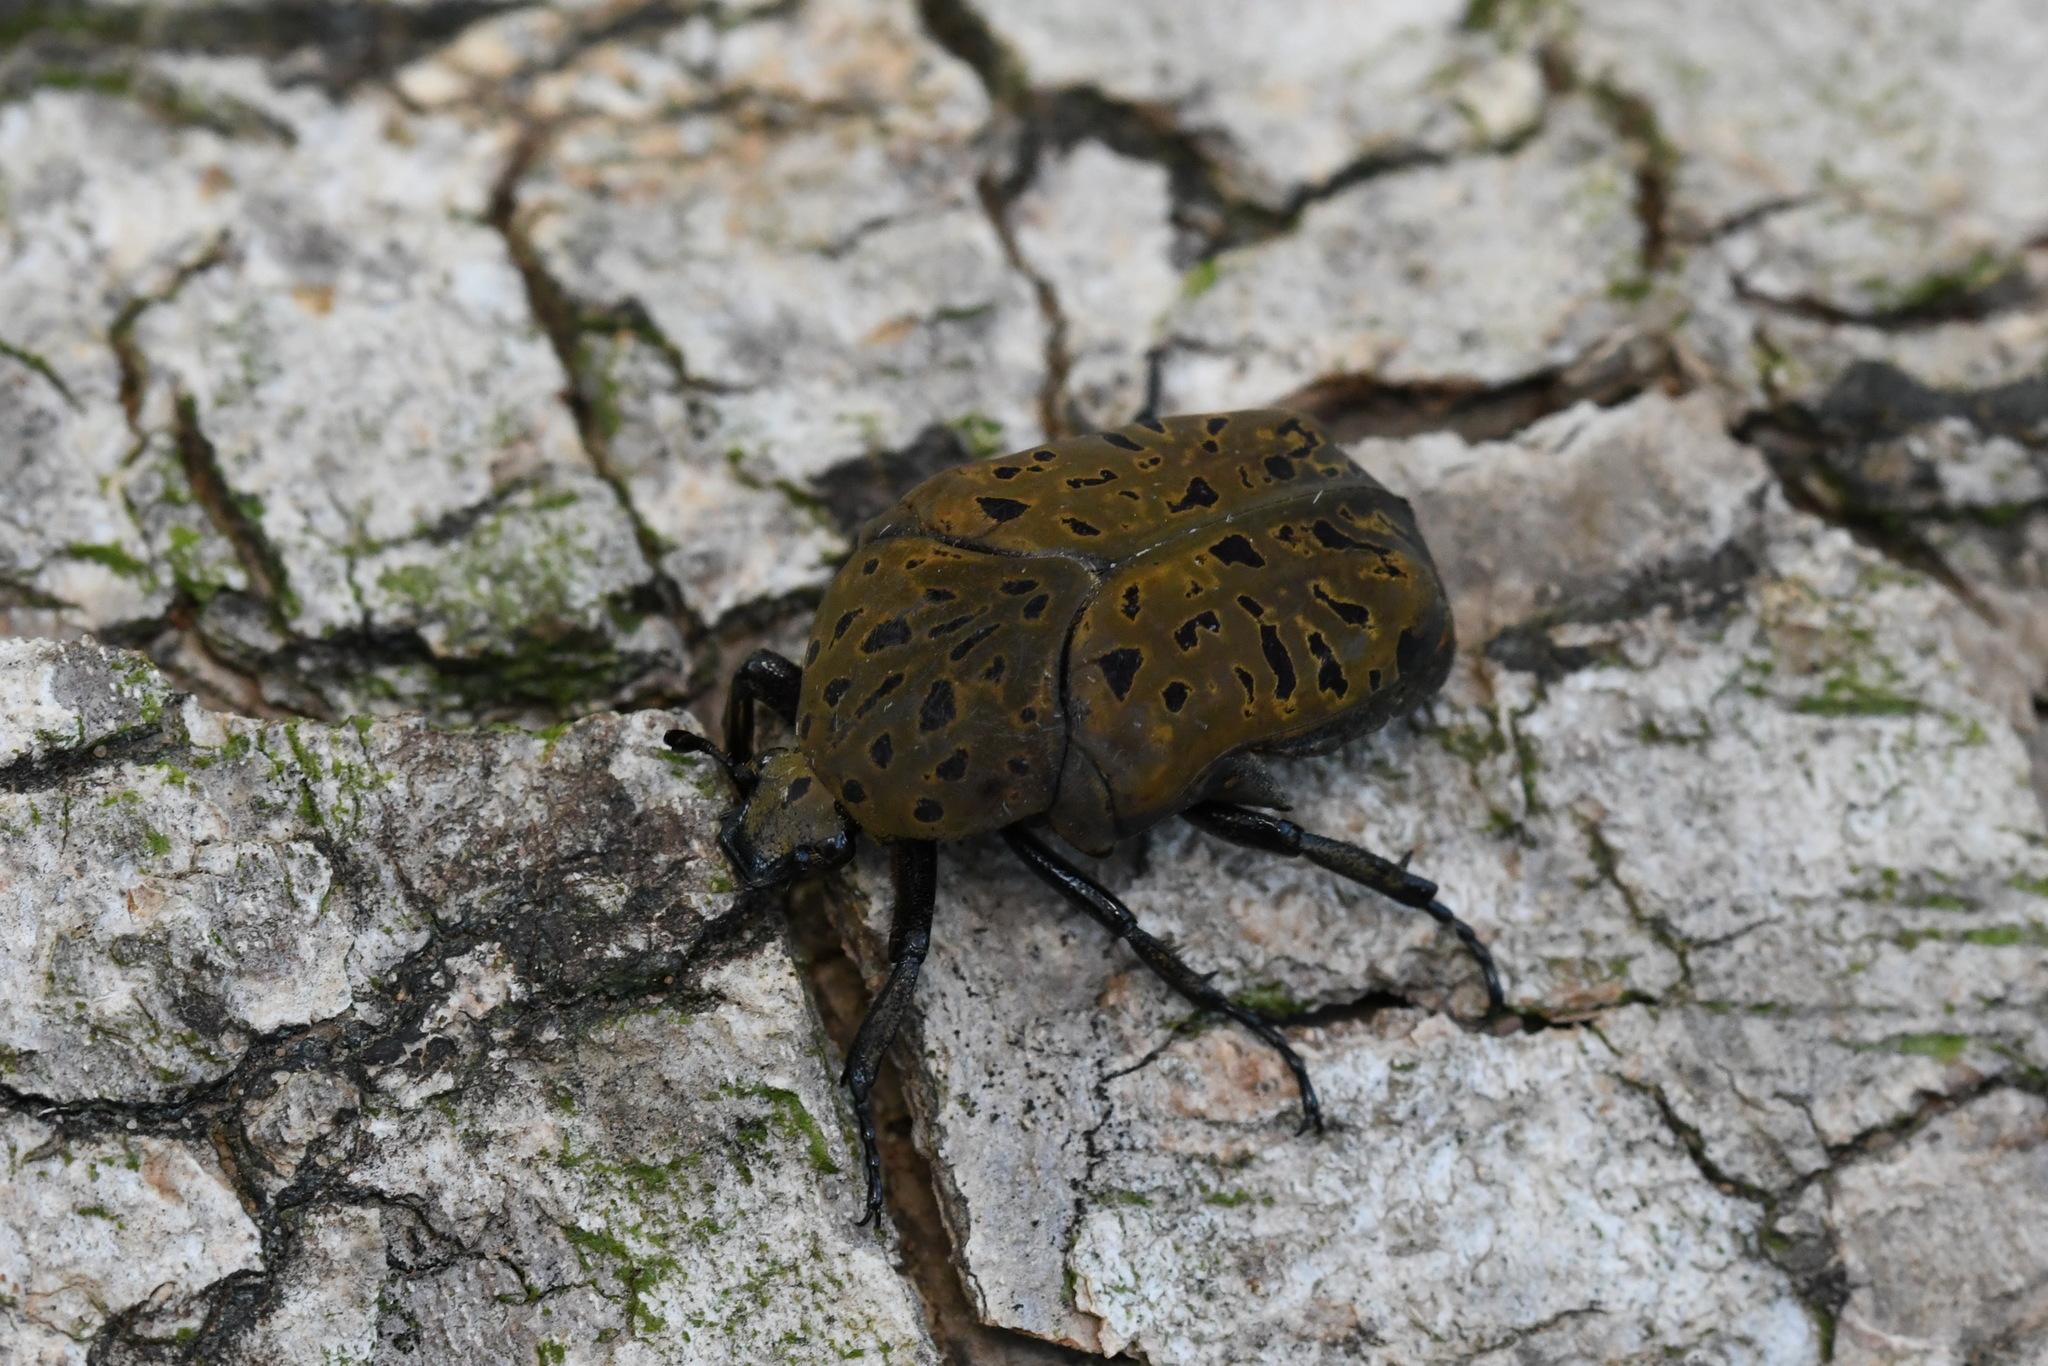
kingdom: Animalia
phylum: Arthropoda
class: Insecta
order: Coleoptera
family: Scarabaeidae
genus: Gymnetis
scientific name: Gymnetis pantherina
